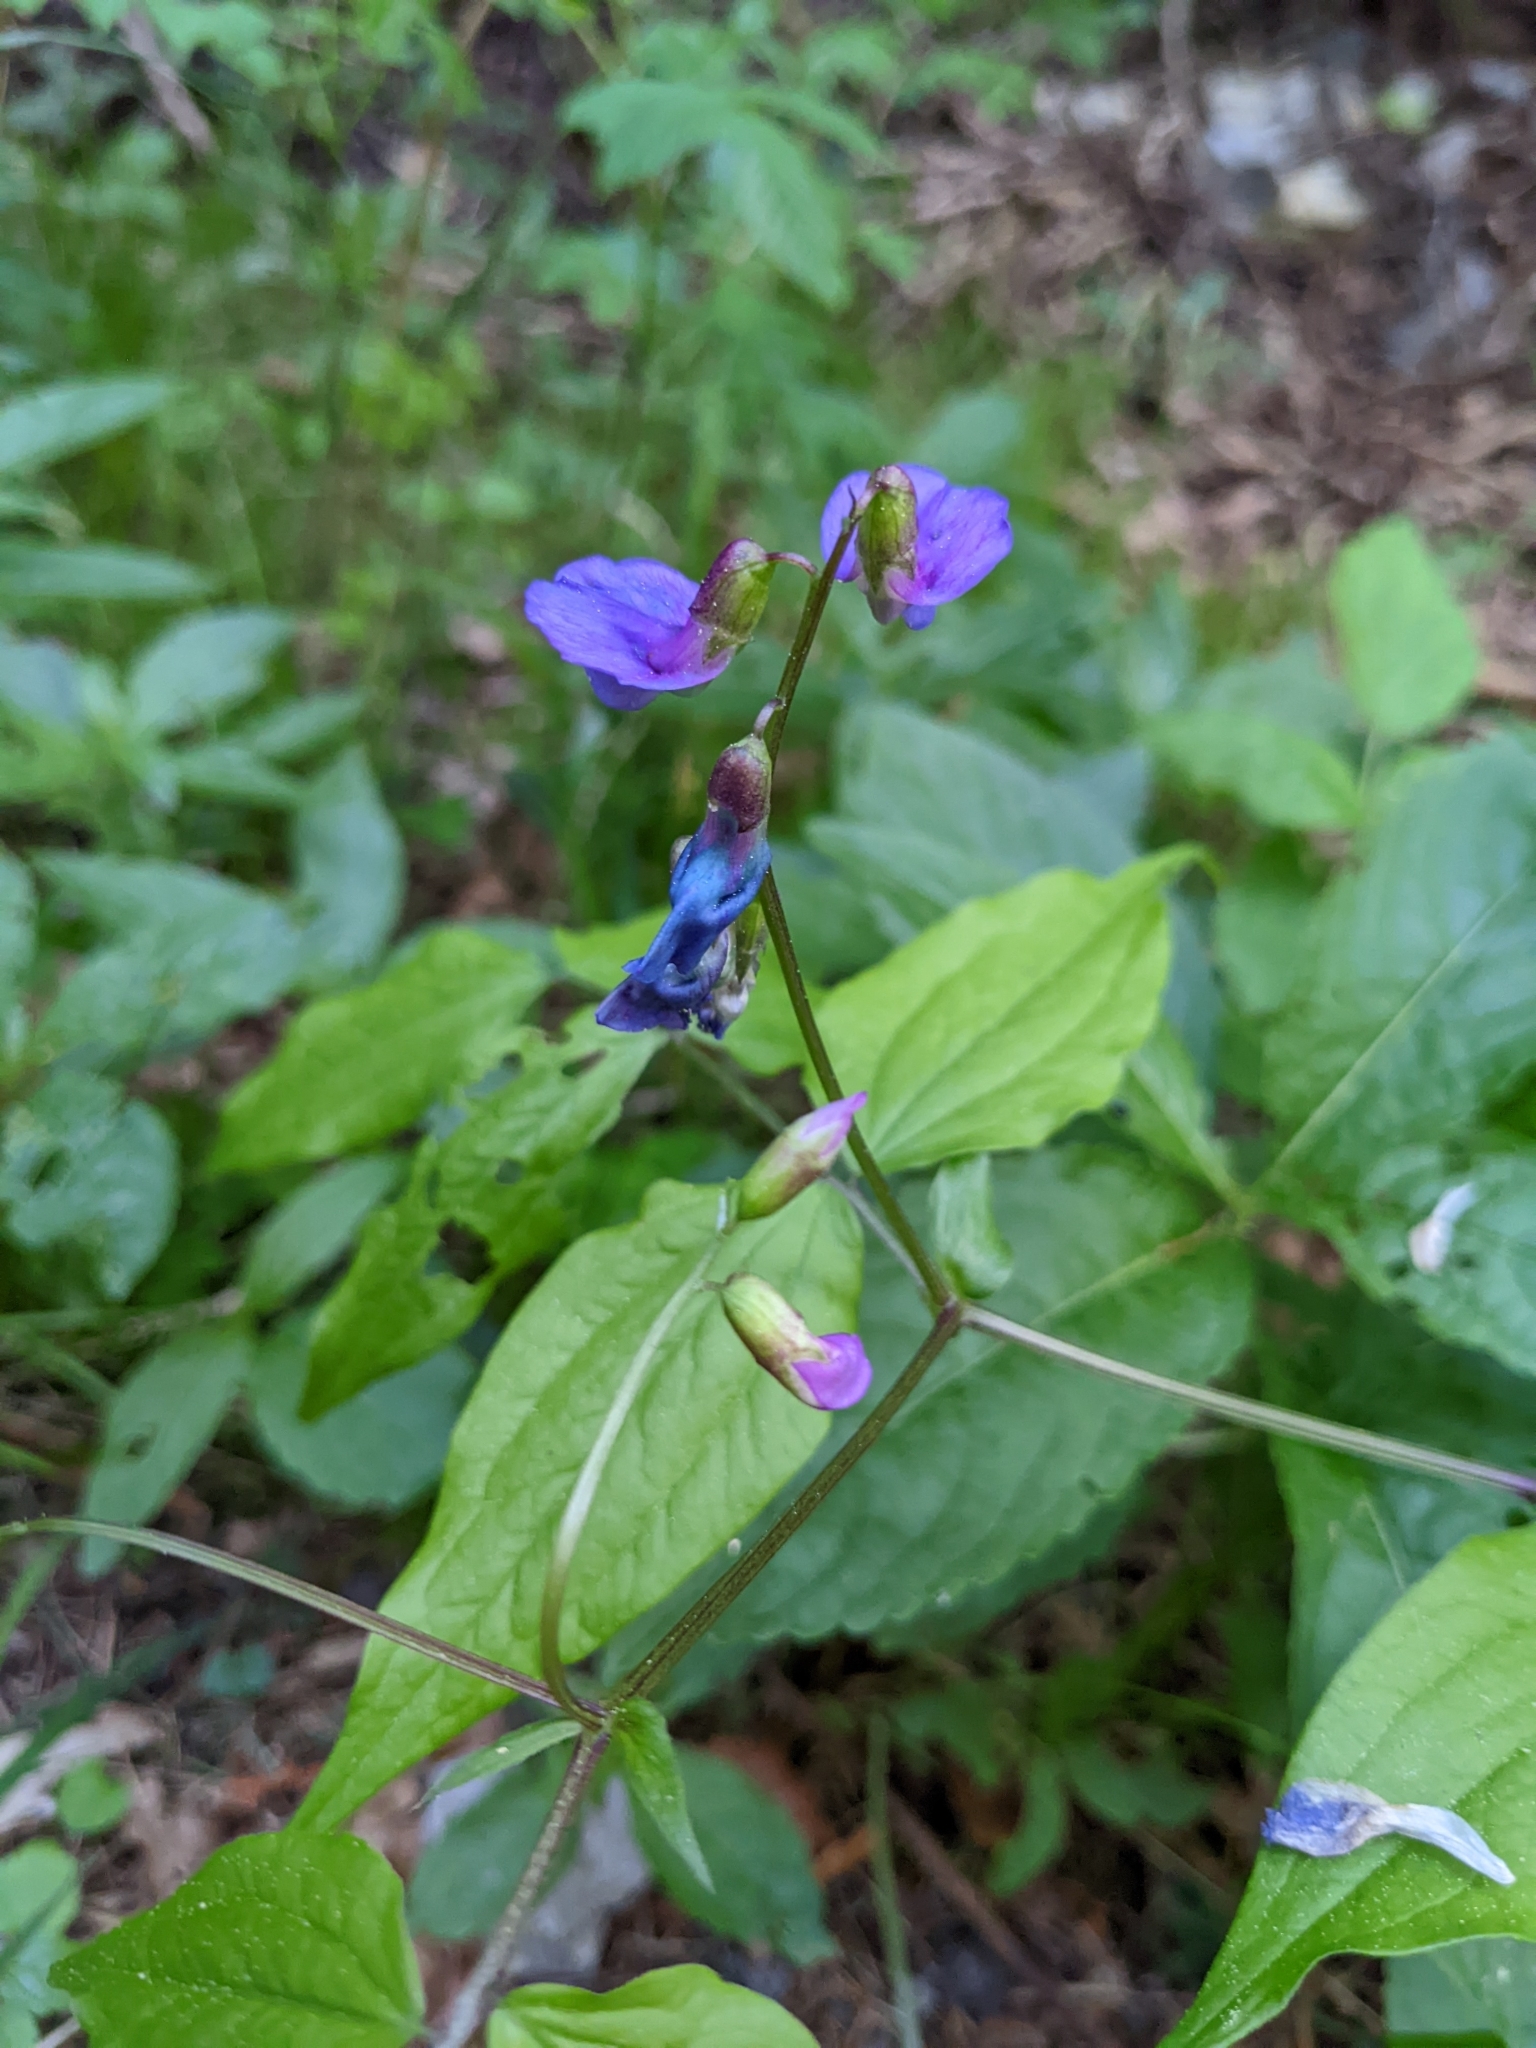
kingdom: Plantae
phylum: Tracheophyta
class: Magnoliopsida
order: Fabales
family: Fabaceae
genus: Lathyrus
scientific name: Lathyrus vernus
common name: Spring pea
